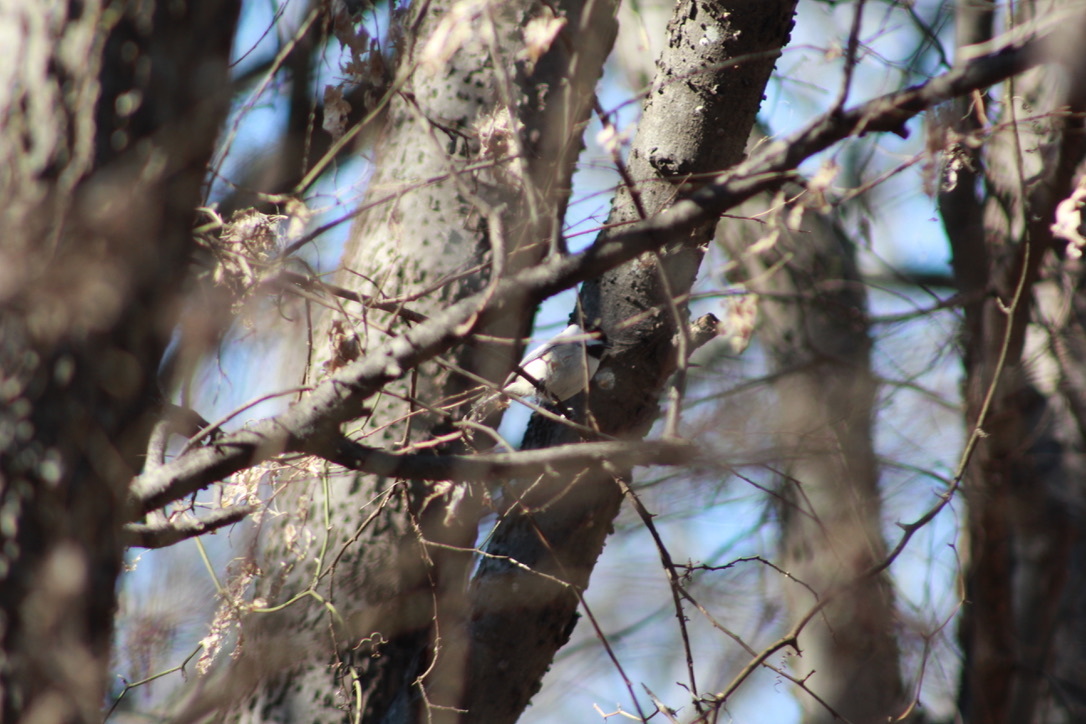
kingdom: Animalia
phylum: Chordata
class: Aves
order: Passeriformes
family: Paridae
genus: Poecile
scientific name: Poecile carolinensis
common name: Carolina chickadee
